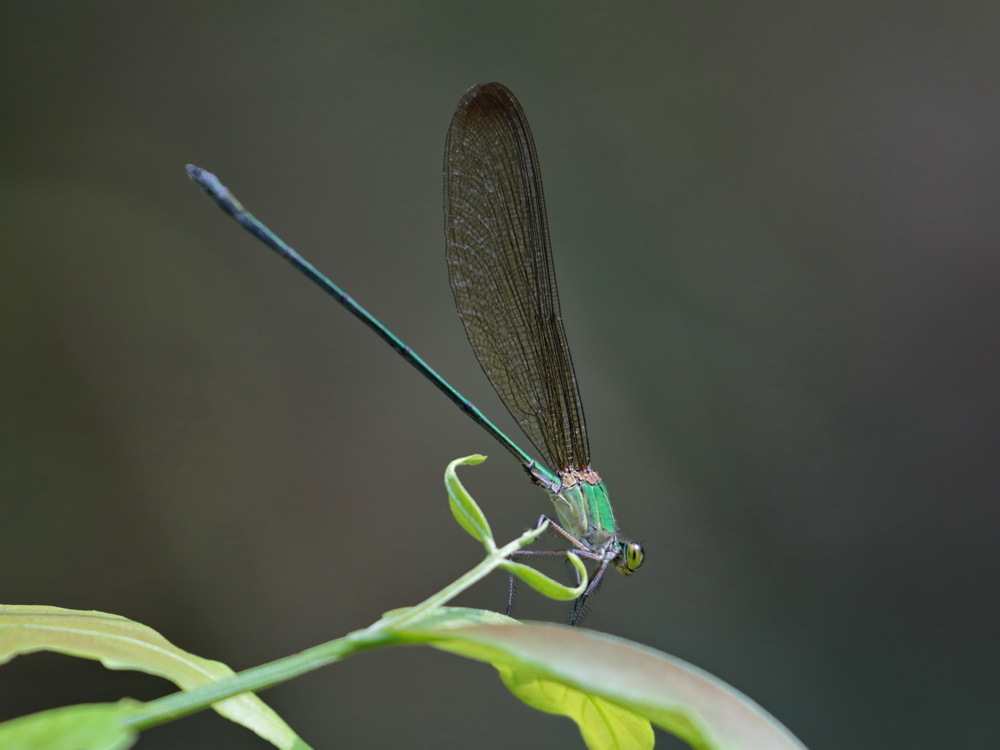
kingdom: Animalia
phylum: Arthropoda
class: Insecta
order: Odonata
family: Calopterygidae
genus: Vestalis
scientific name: Vestalis gracilis
